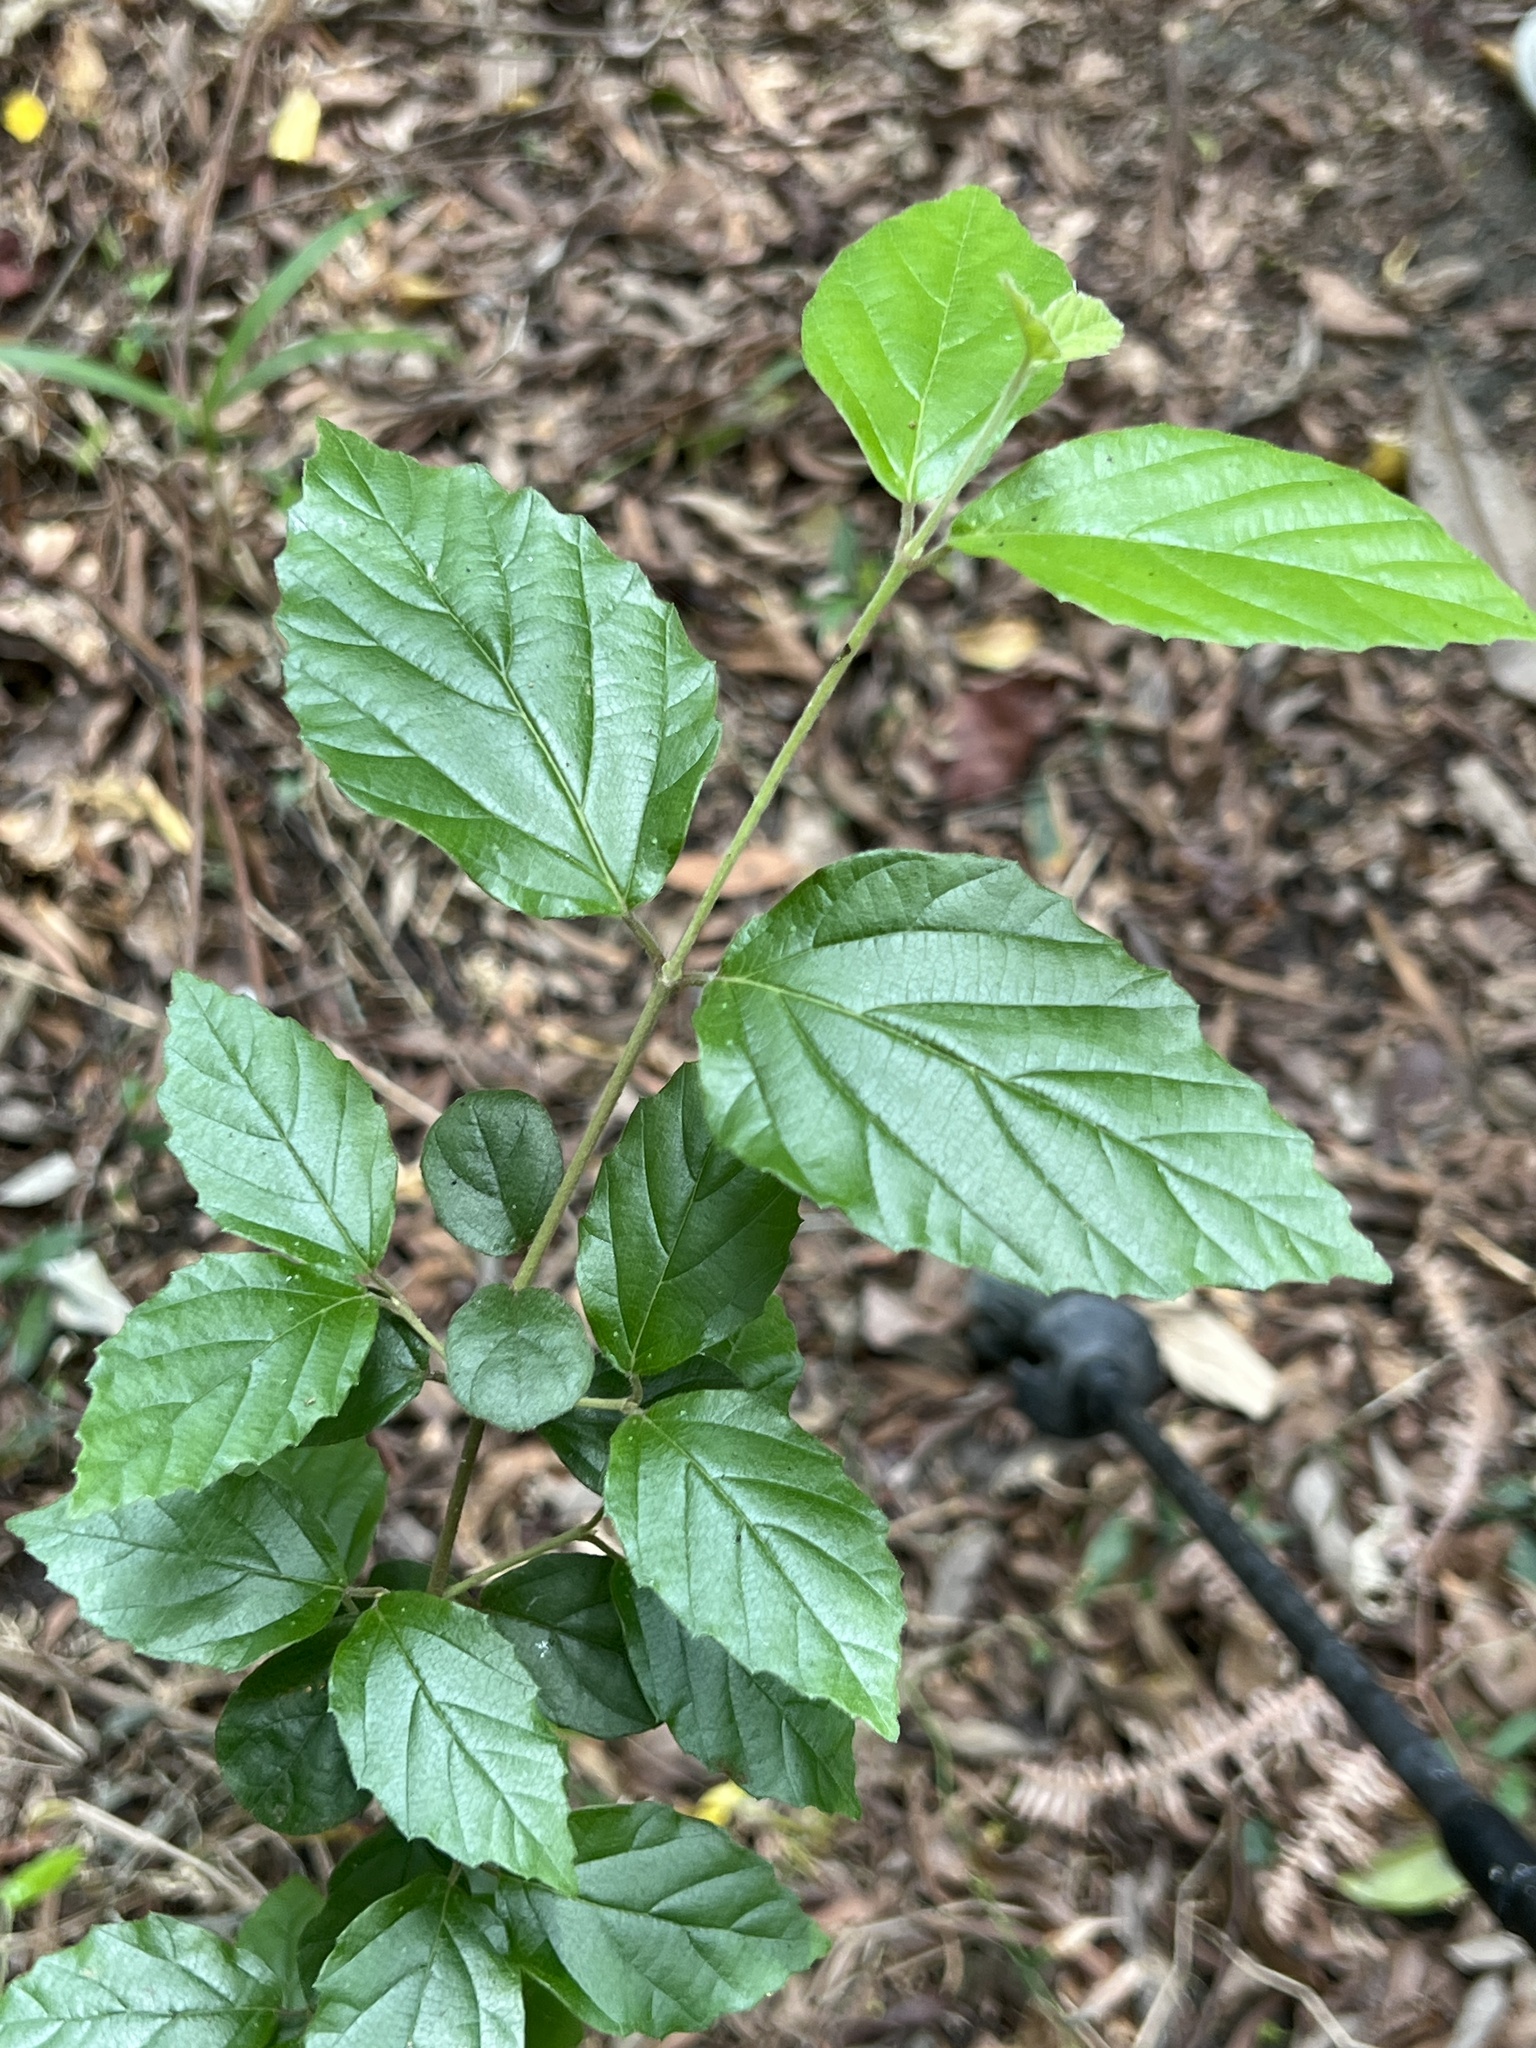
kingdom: Plantae
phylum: Tracheophyta
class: Magnoliopsida
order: Dipsacales
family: Viburnaceae
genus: Viburnum
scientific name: Viburnum luzonicum
